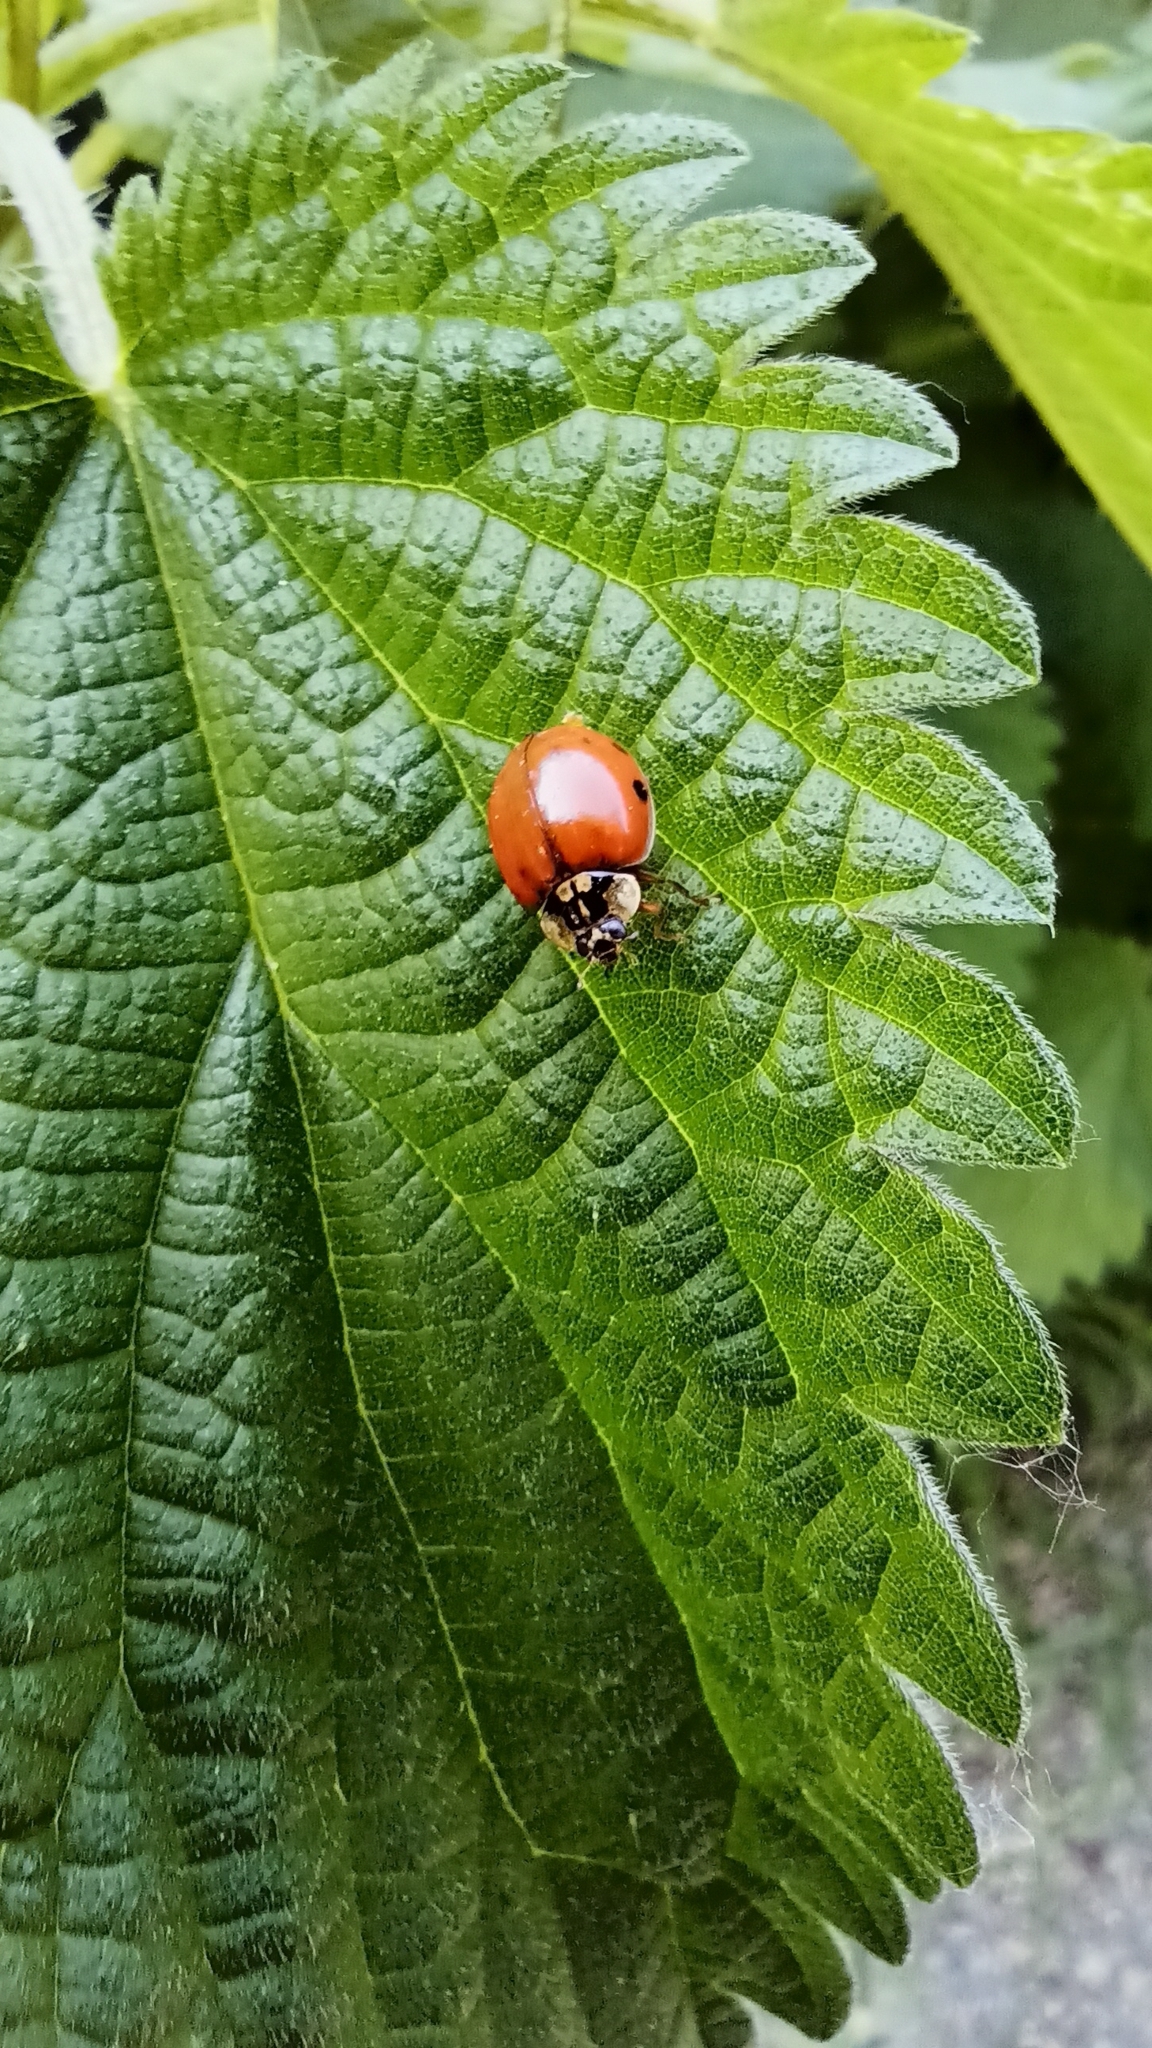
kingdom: Animalia
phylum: Arthropoda
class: Insecta
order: Coleoptera
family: Coccinellidae
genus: Harmonia
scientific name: Harmonia axyridis
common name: Harlequin ladybird
